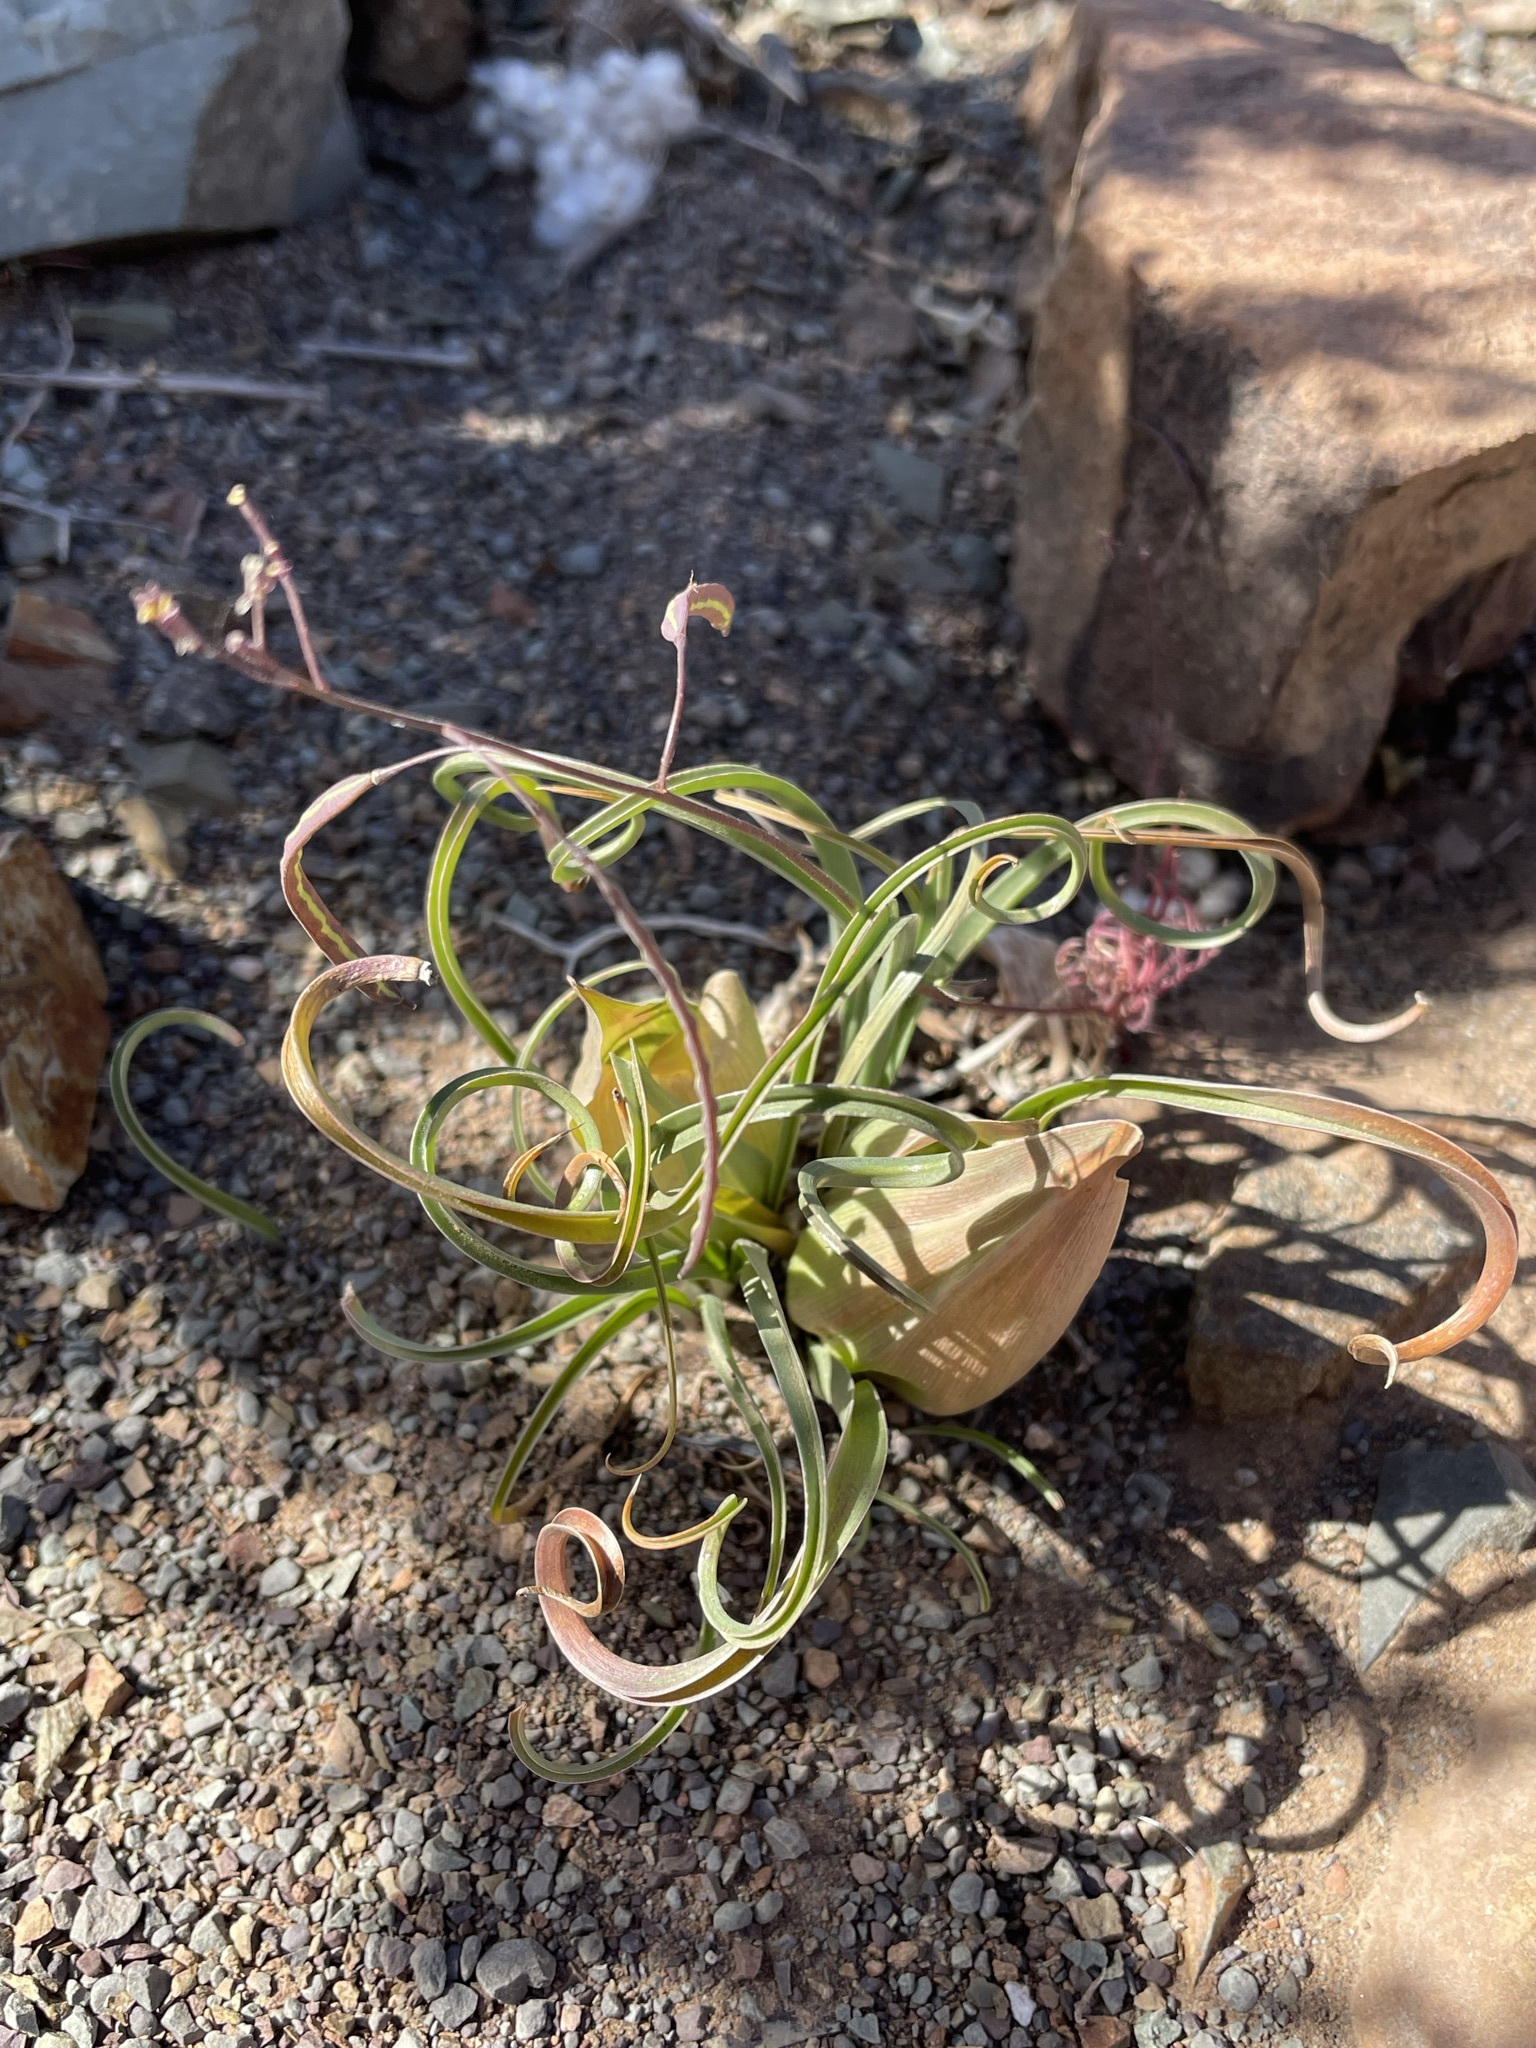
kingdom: Plantae
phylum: Tracheophyta
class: Liliopsida
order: Liliales
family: Colchicaceae
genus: Colchicum
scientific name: Colchicum volutare
